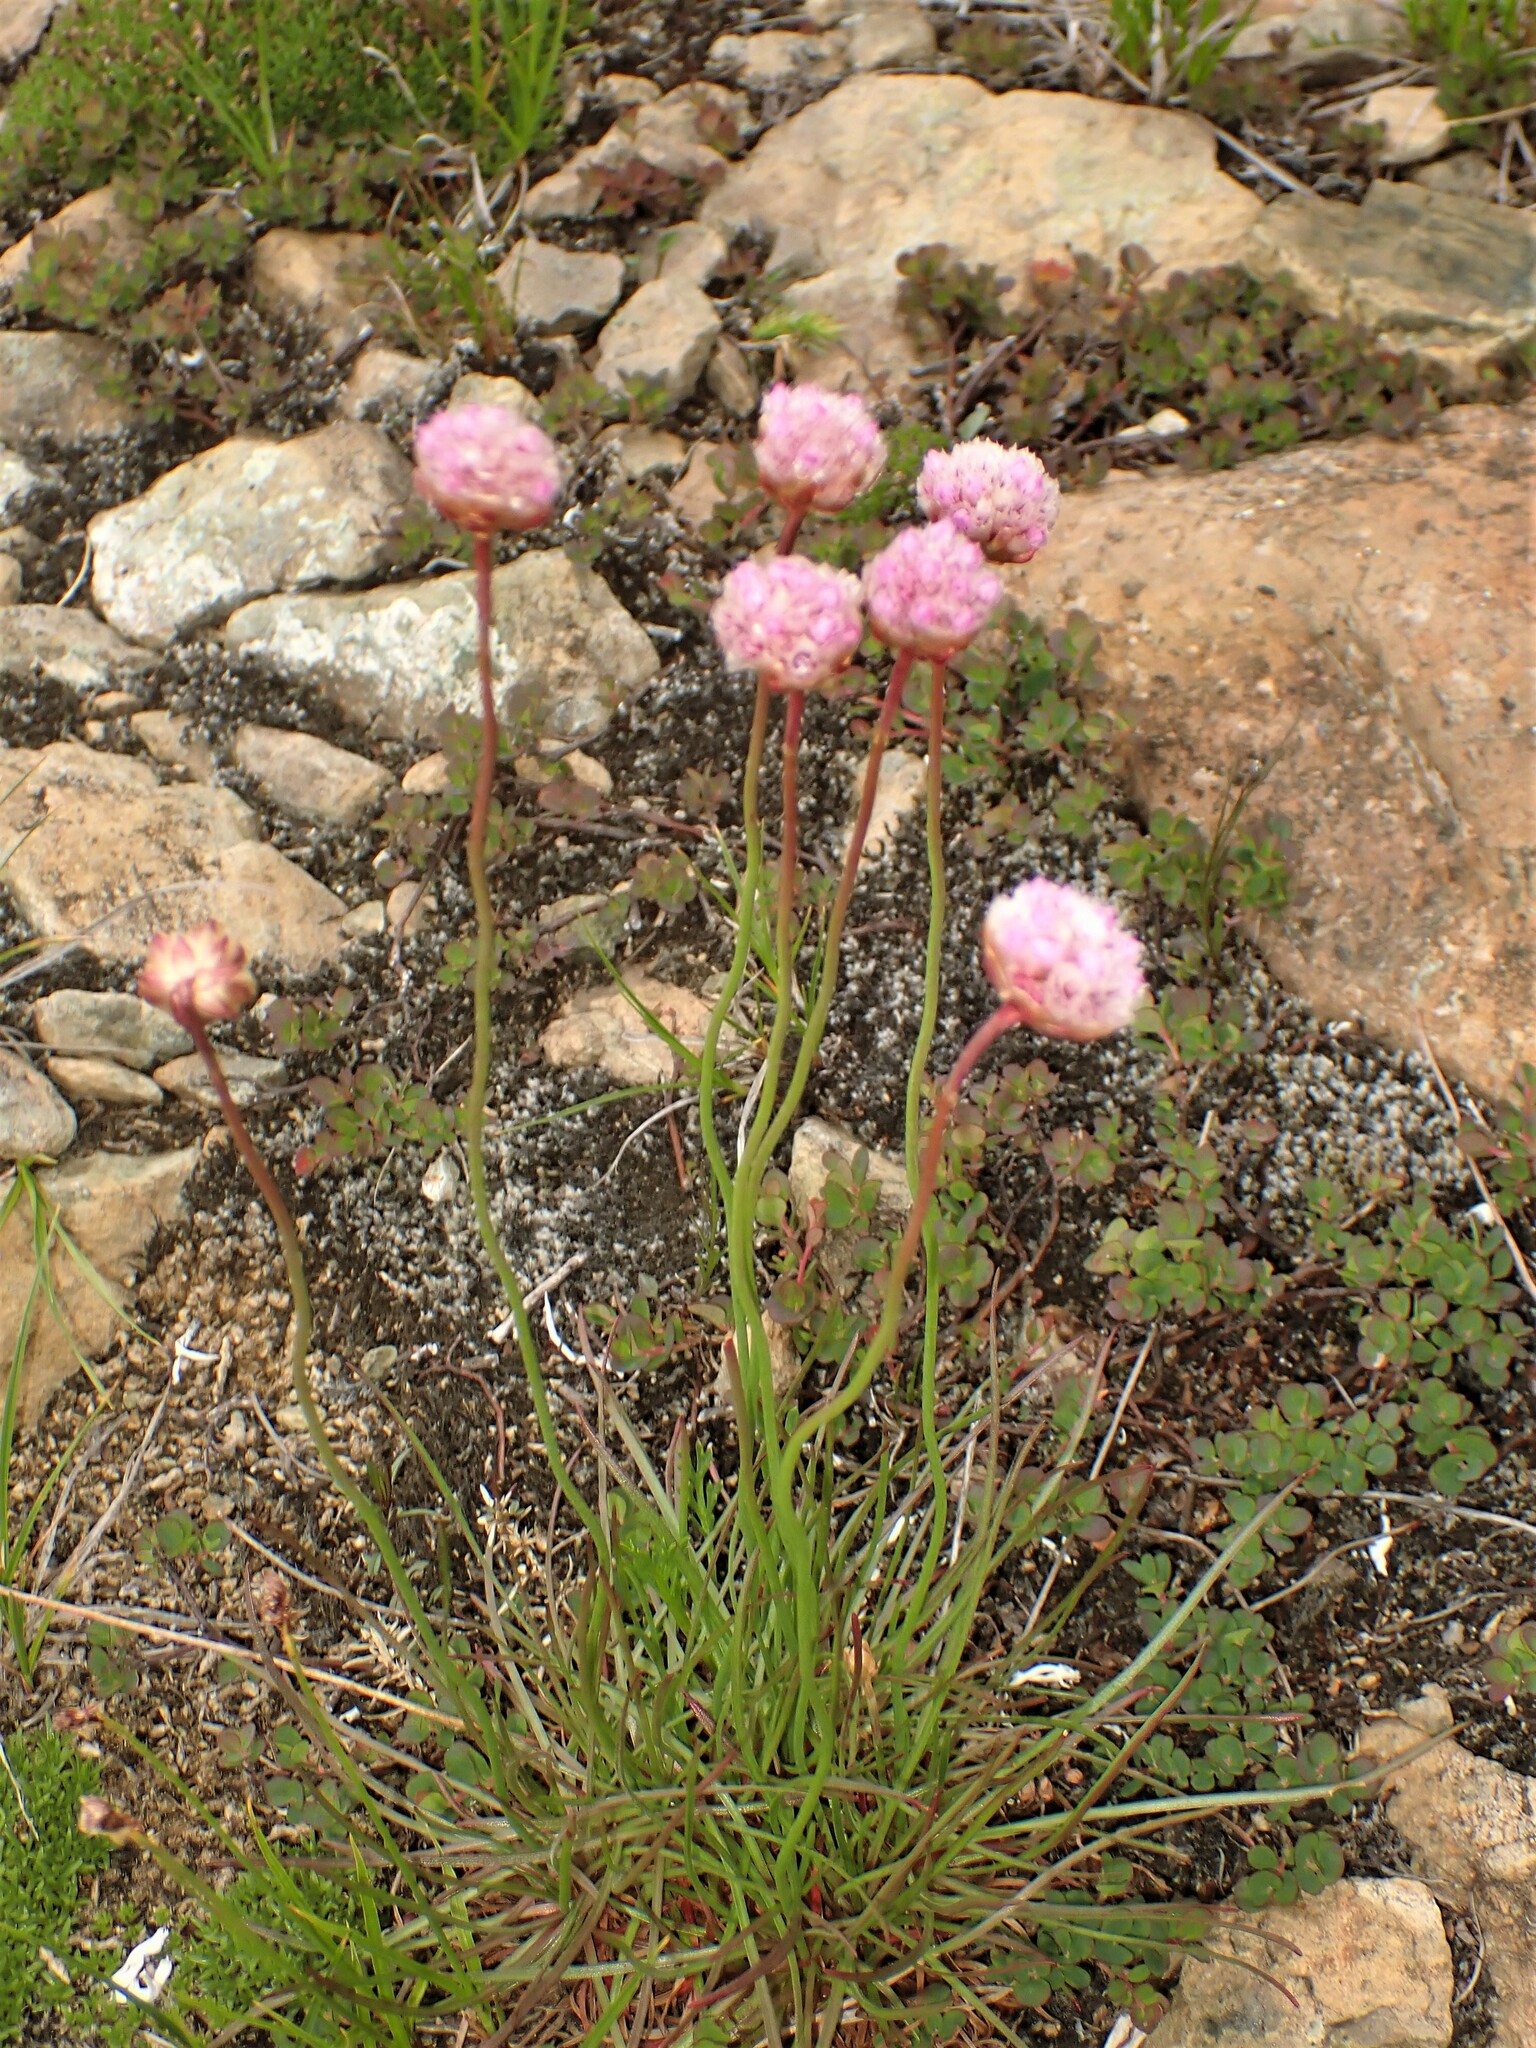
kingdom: Plantae
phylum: Tracheophyta
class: Magnoliopsida
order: Caryophyllales
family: Plumbaginaceae
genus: Armeria
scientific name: Armeria maritima
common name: Thrift
